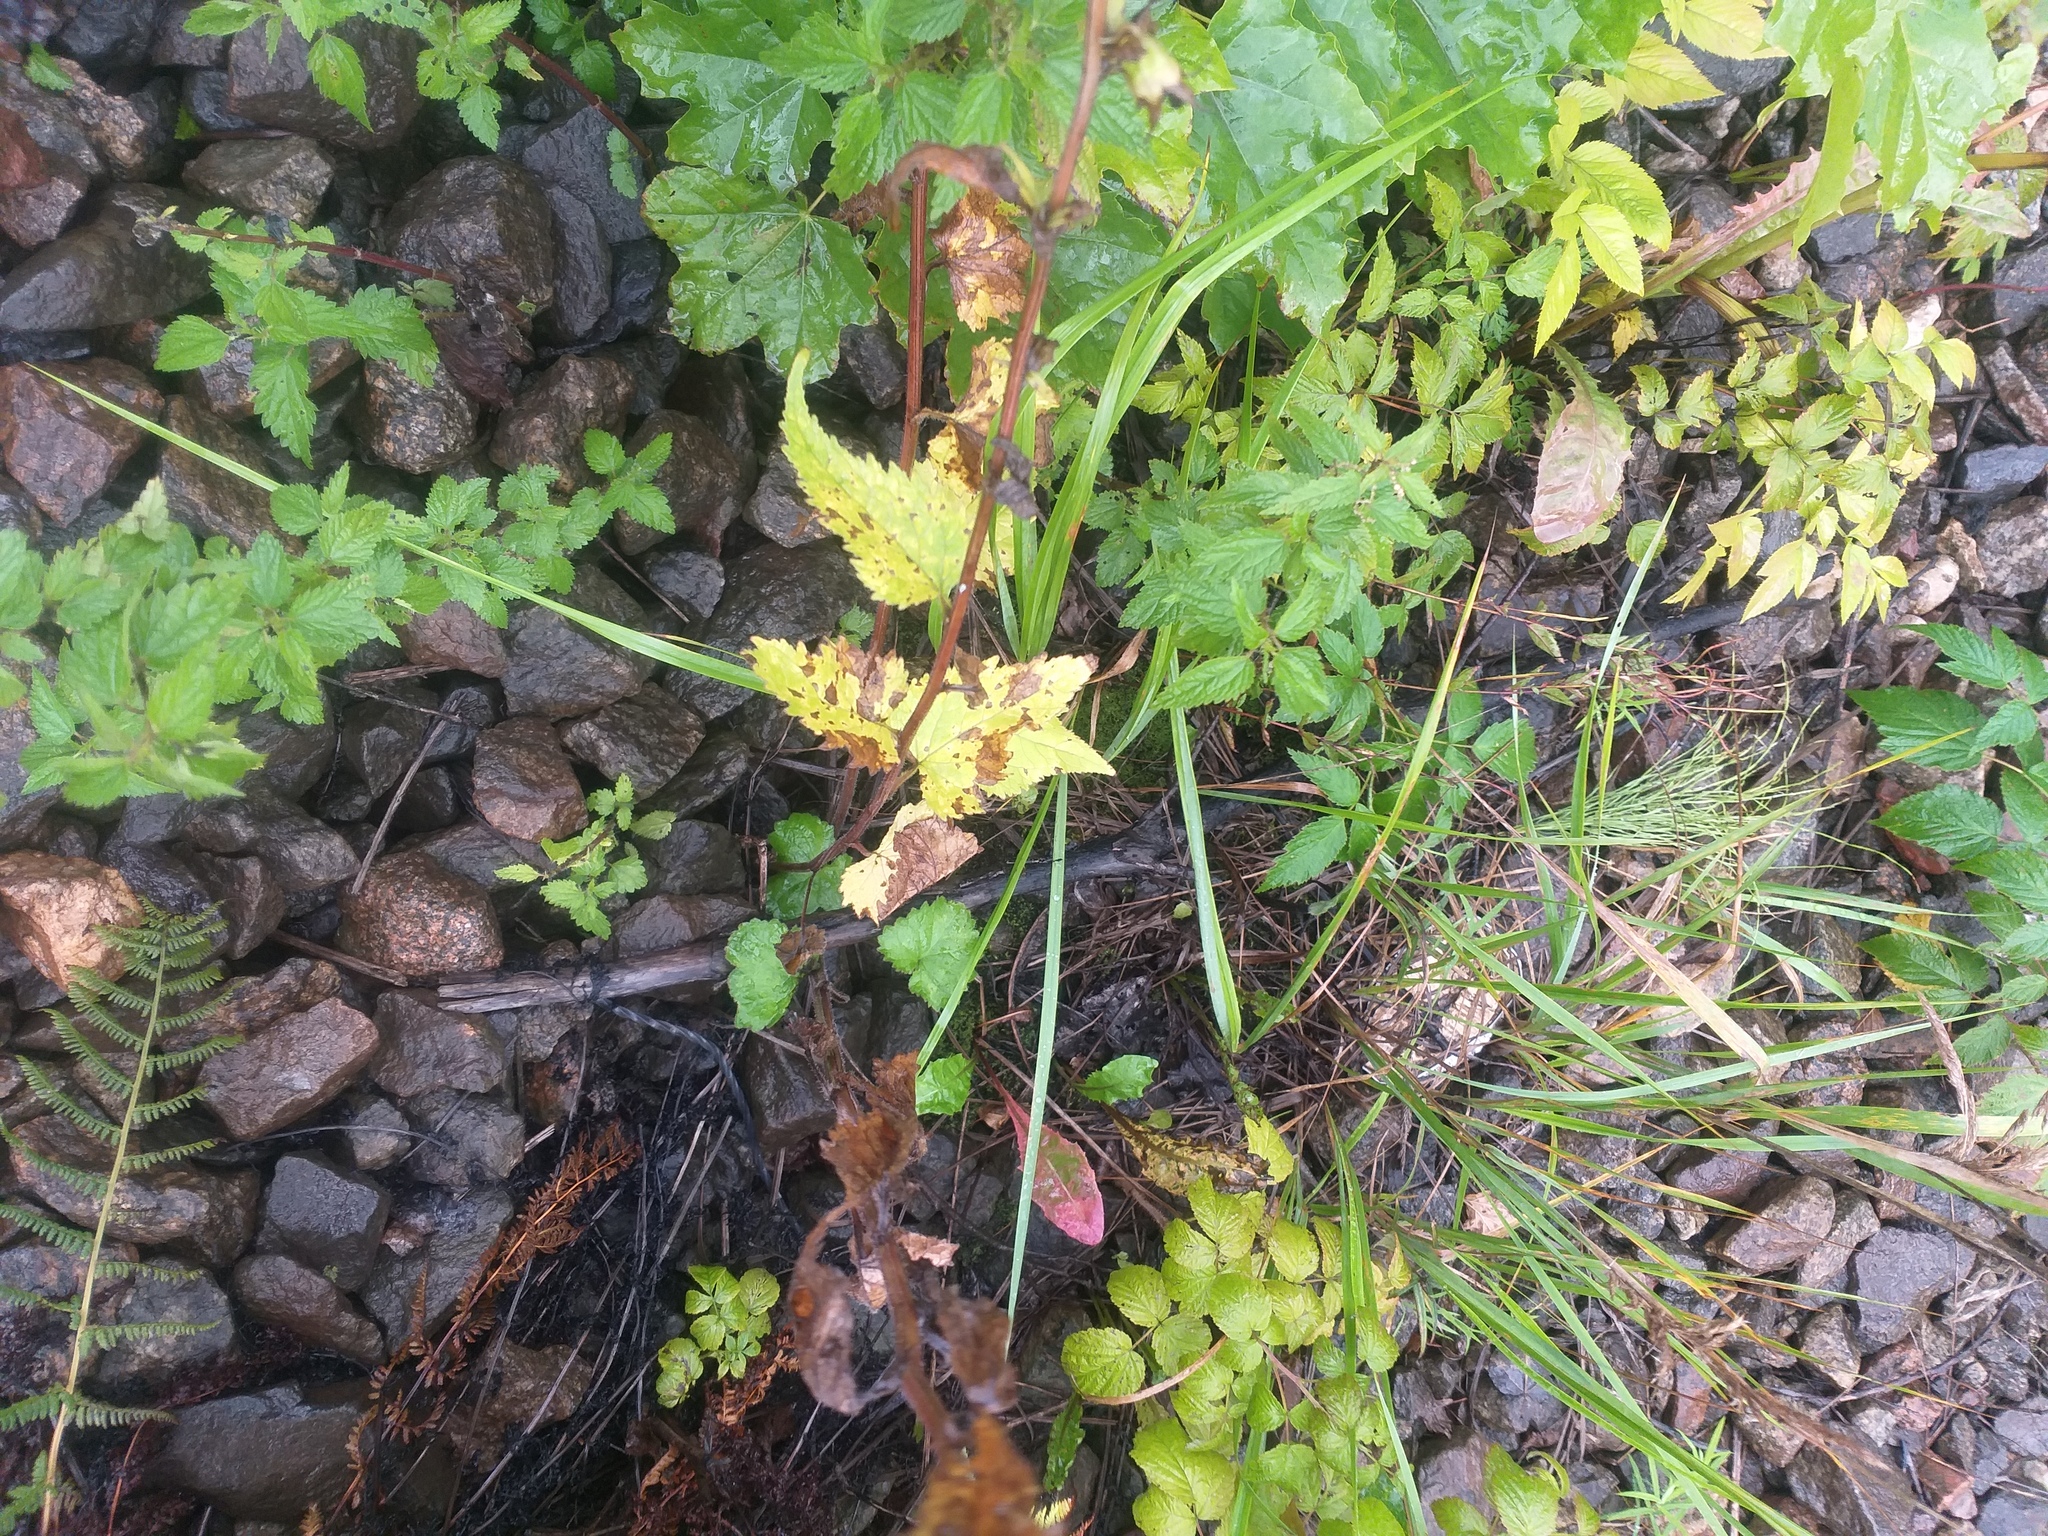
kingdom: Plantae
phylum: Tracheophyta
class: Magnoliopsida
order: Asterales
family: Campanulaceae
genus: Campanula
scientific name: Campanula trachelium
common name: Nettle-leaved bellflower
